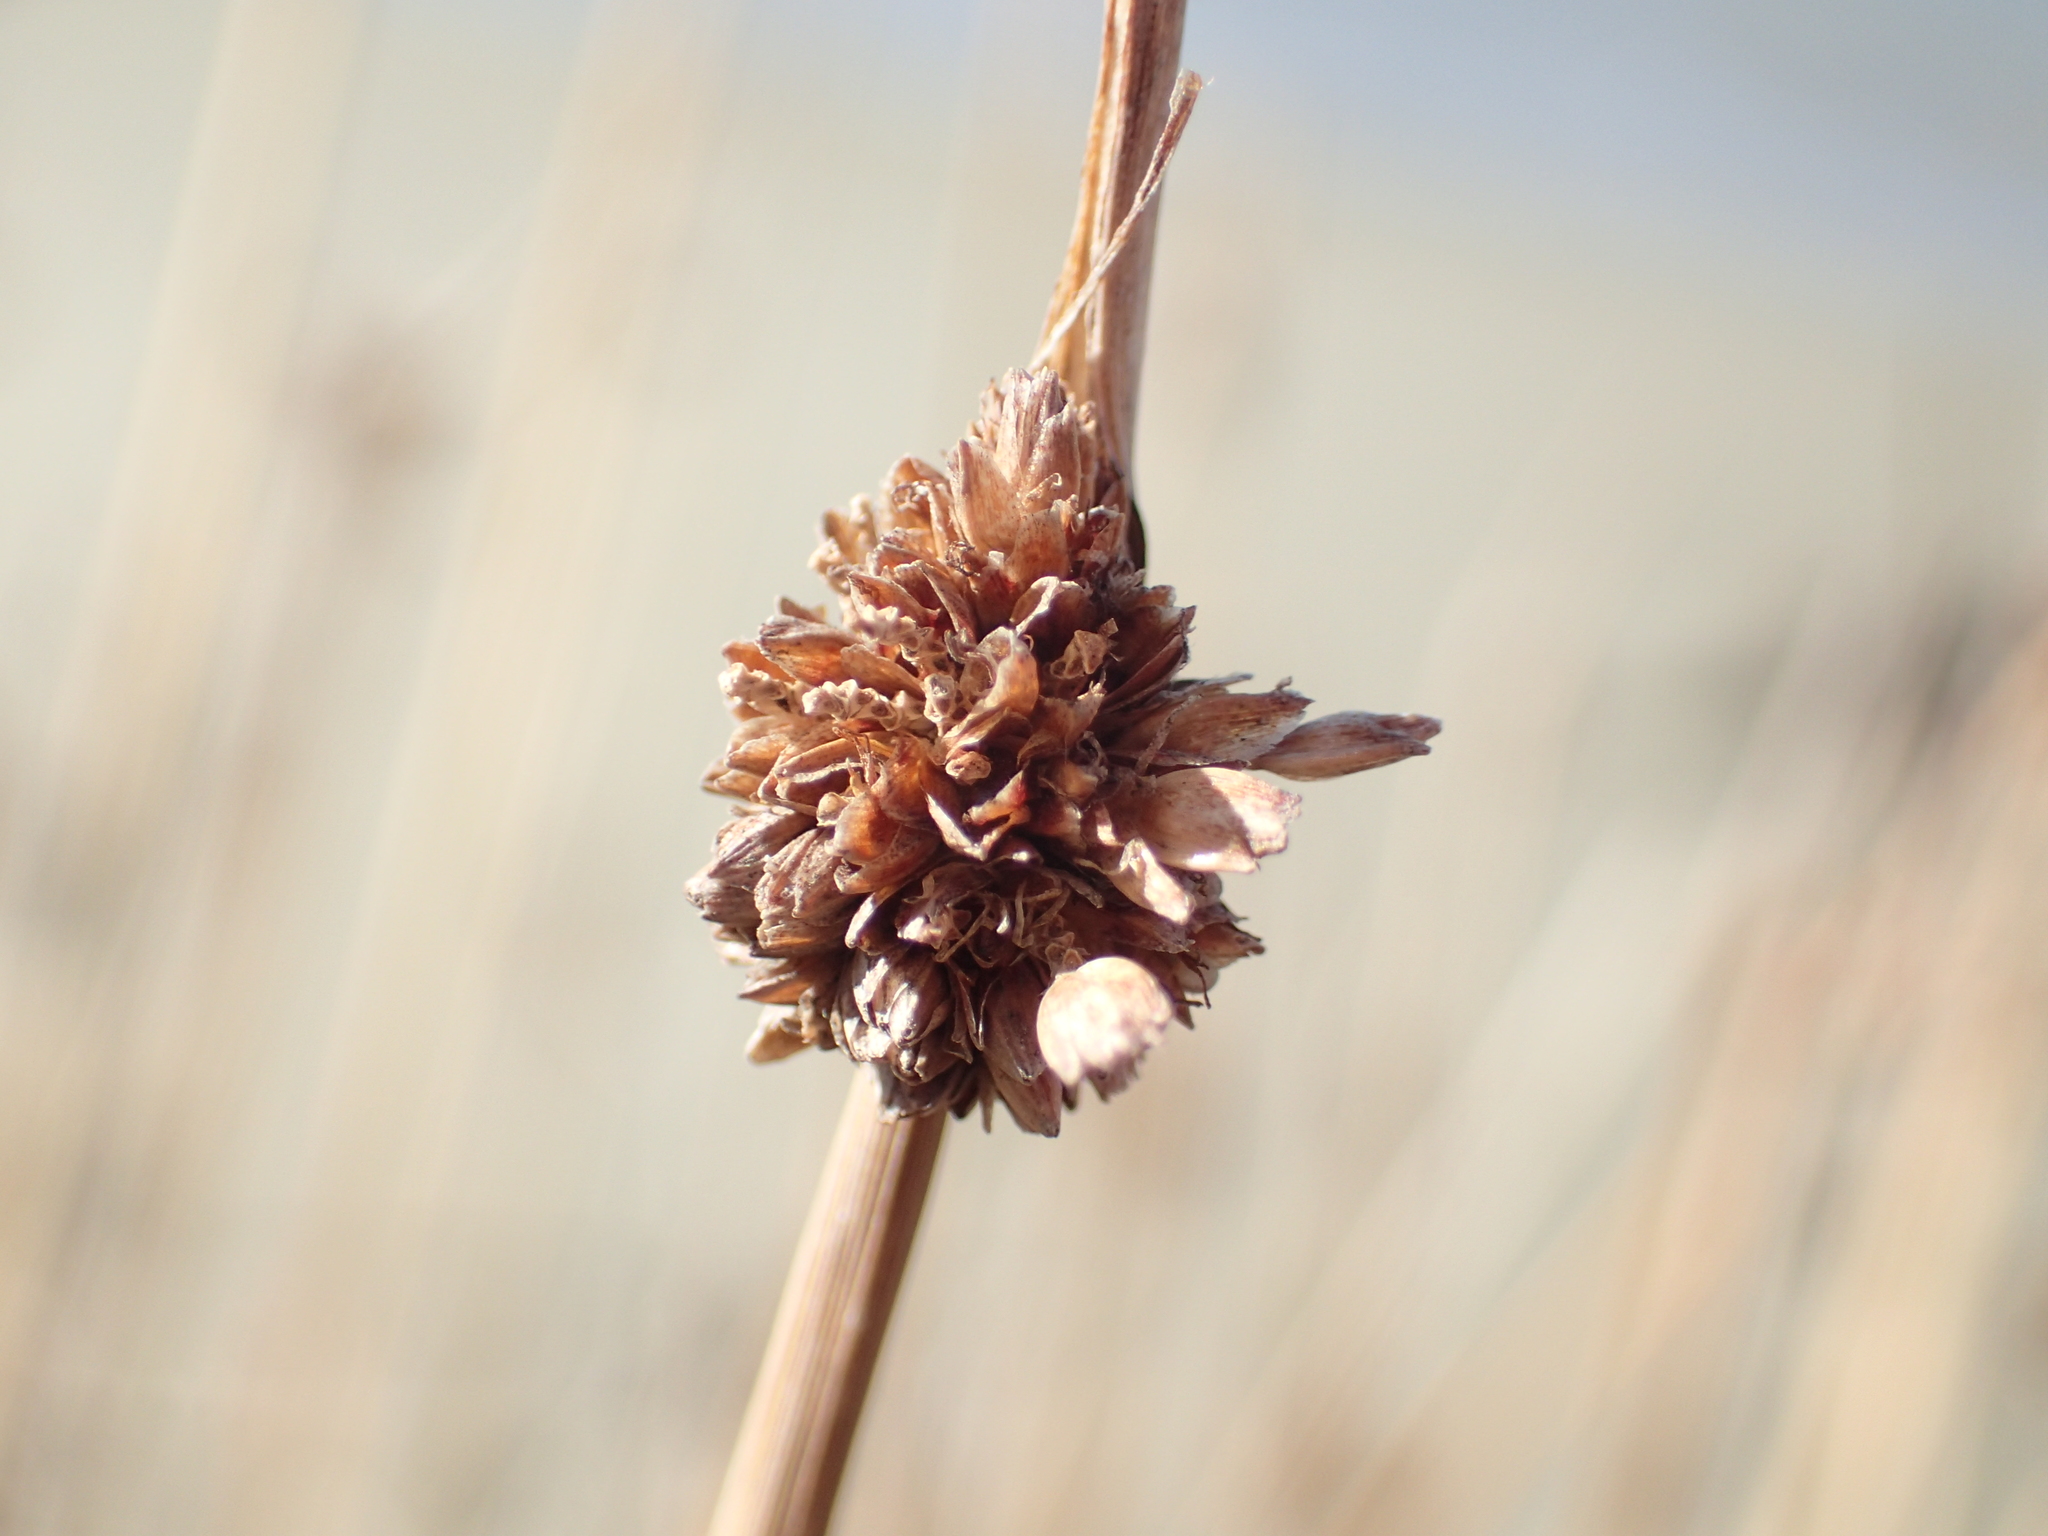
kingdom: Plantae
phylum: Tracheophyta
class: Liliopsida
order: Poales
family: Cyperaceae
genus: Ficinia
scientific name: Ficinia nodosa
